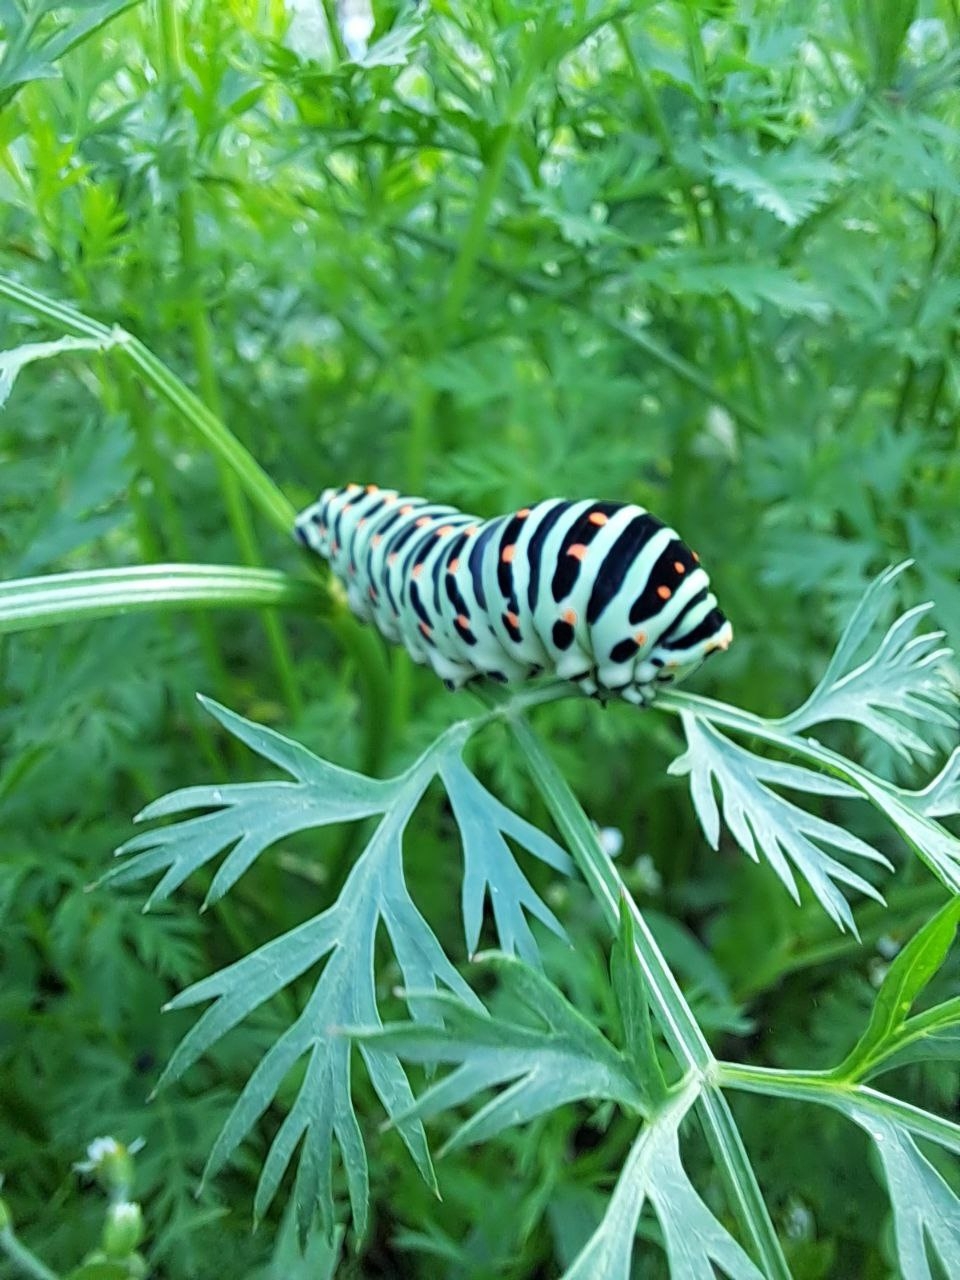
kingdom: Animalia
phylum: Arthropoda
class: Insecta
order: Lepidoptera
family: Papilionidae
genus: Papilio
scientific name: Papilio machaon
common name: Swallowtail
